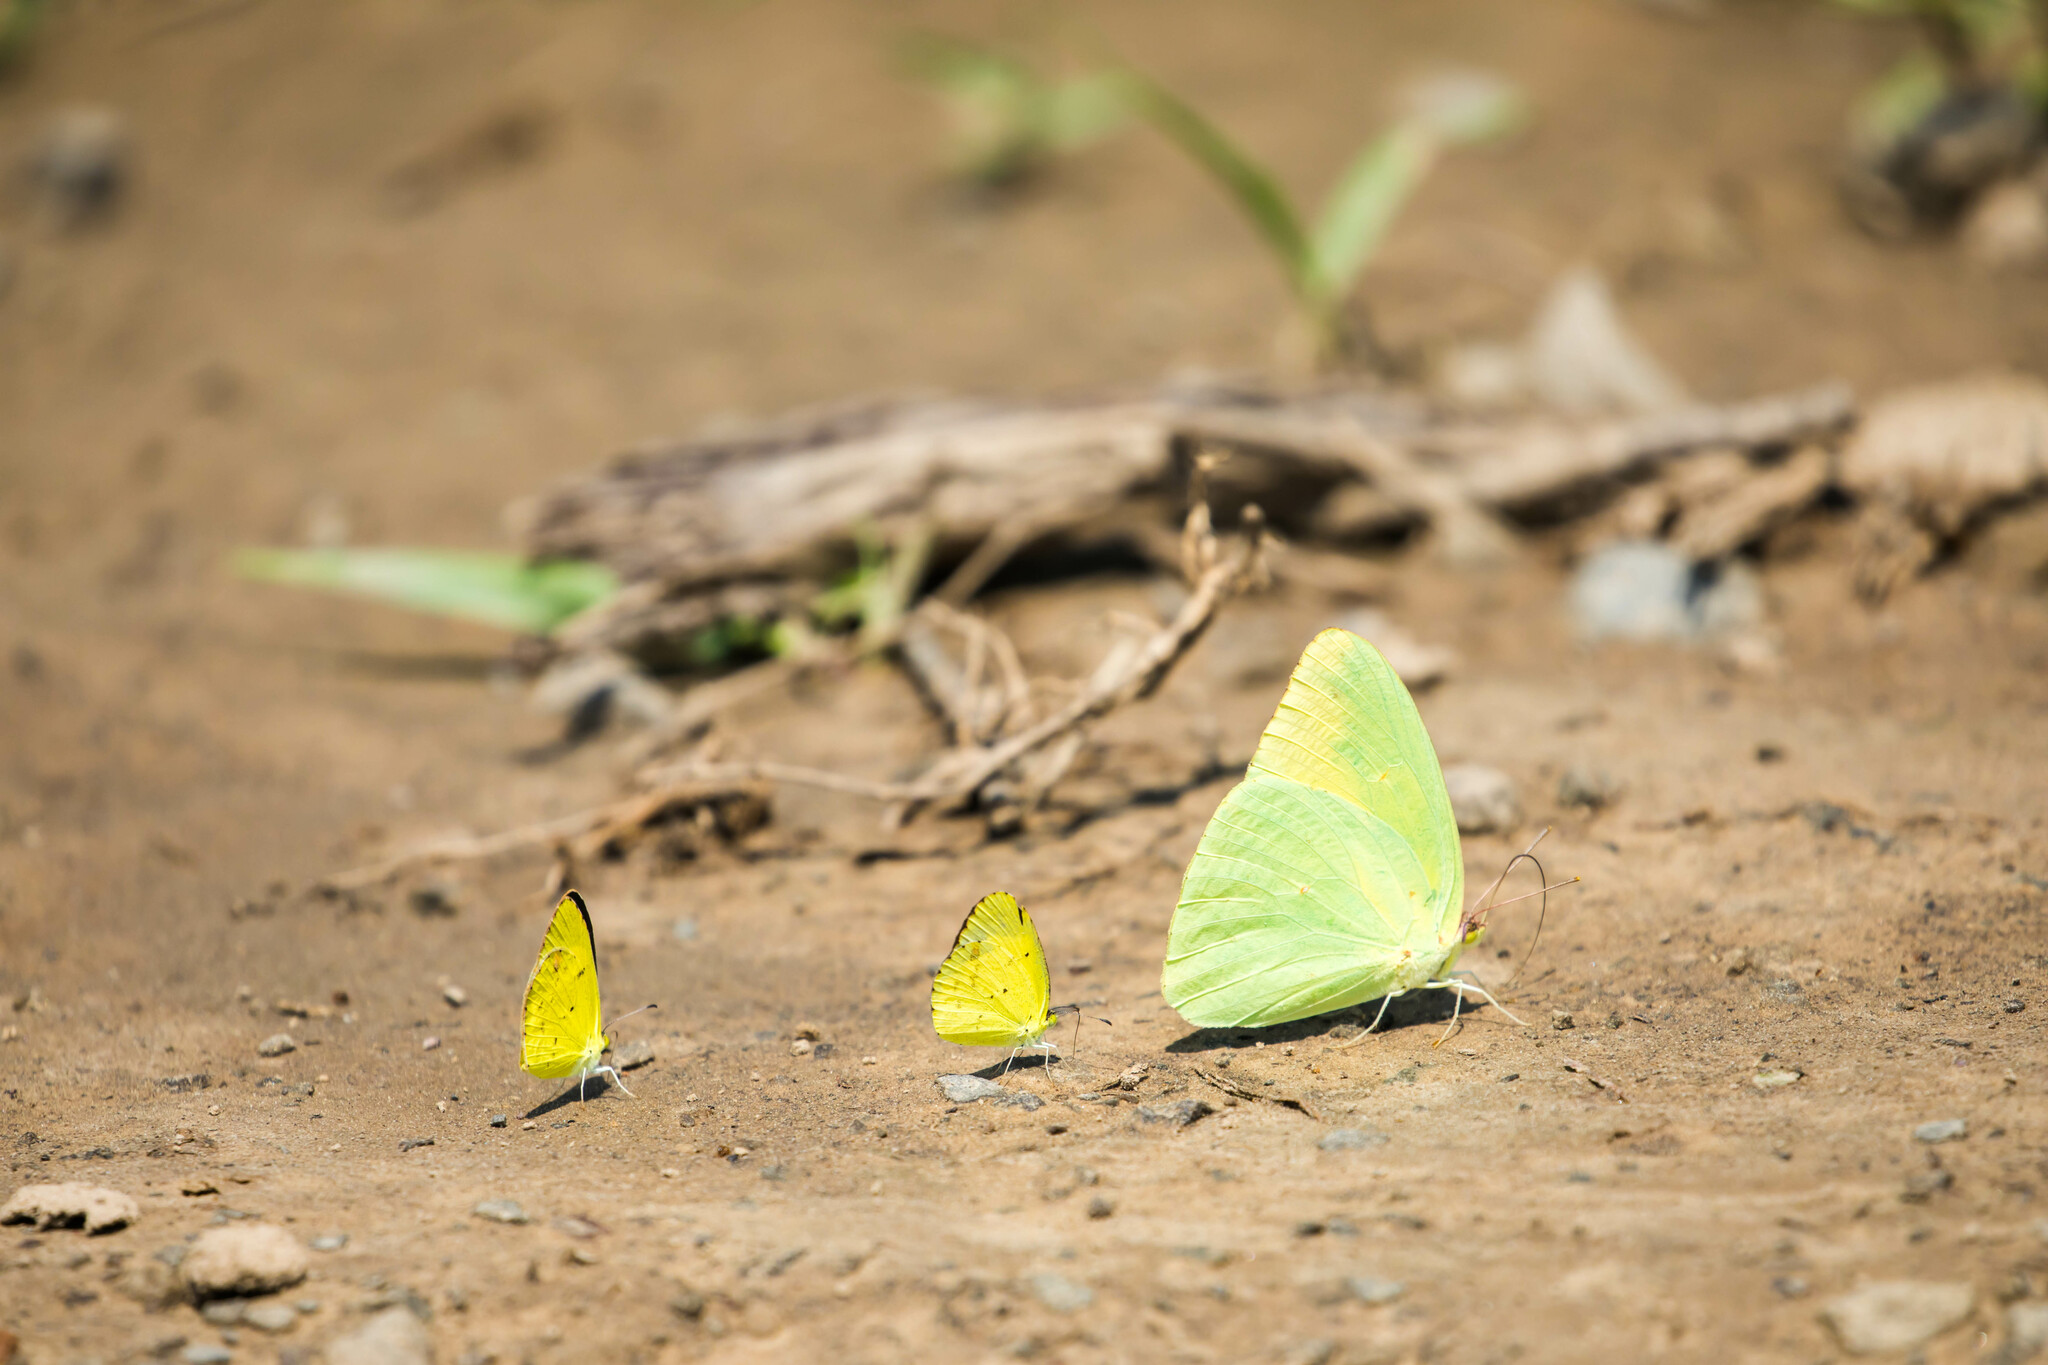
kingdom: Animalia
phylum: Arthropoda
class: Insecta
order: Lepidoptera
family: Pieridae
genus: Pyrisitia
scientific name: Pyrisitia lisa
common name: Little yellow
